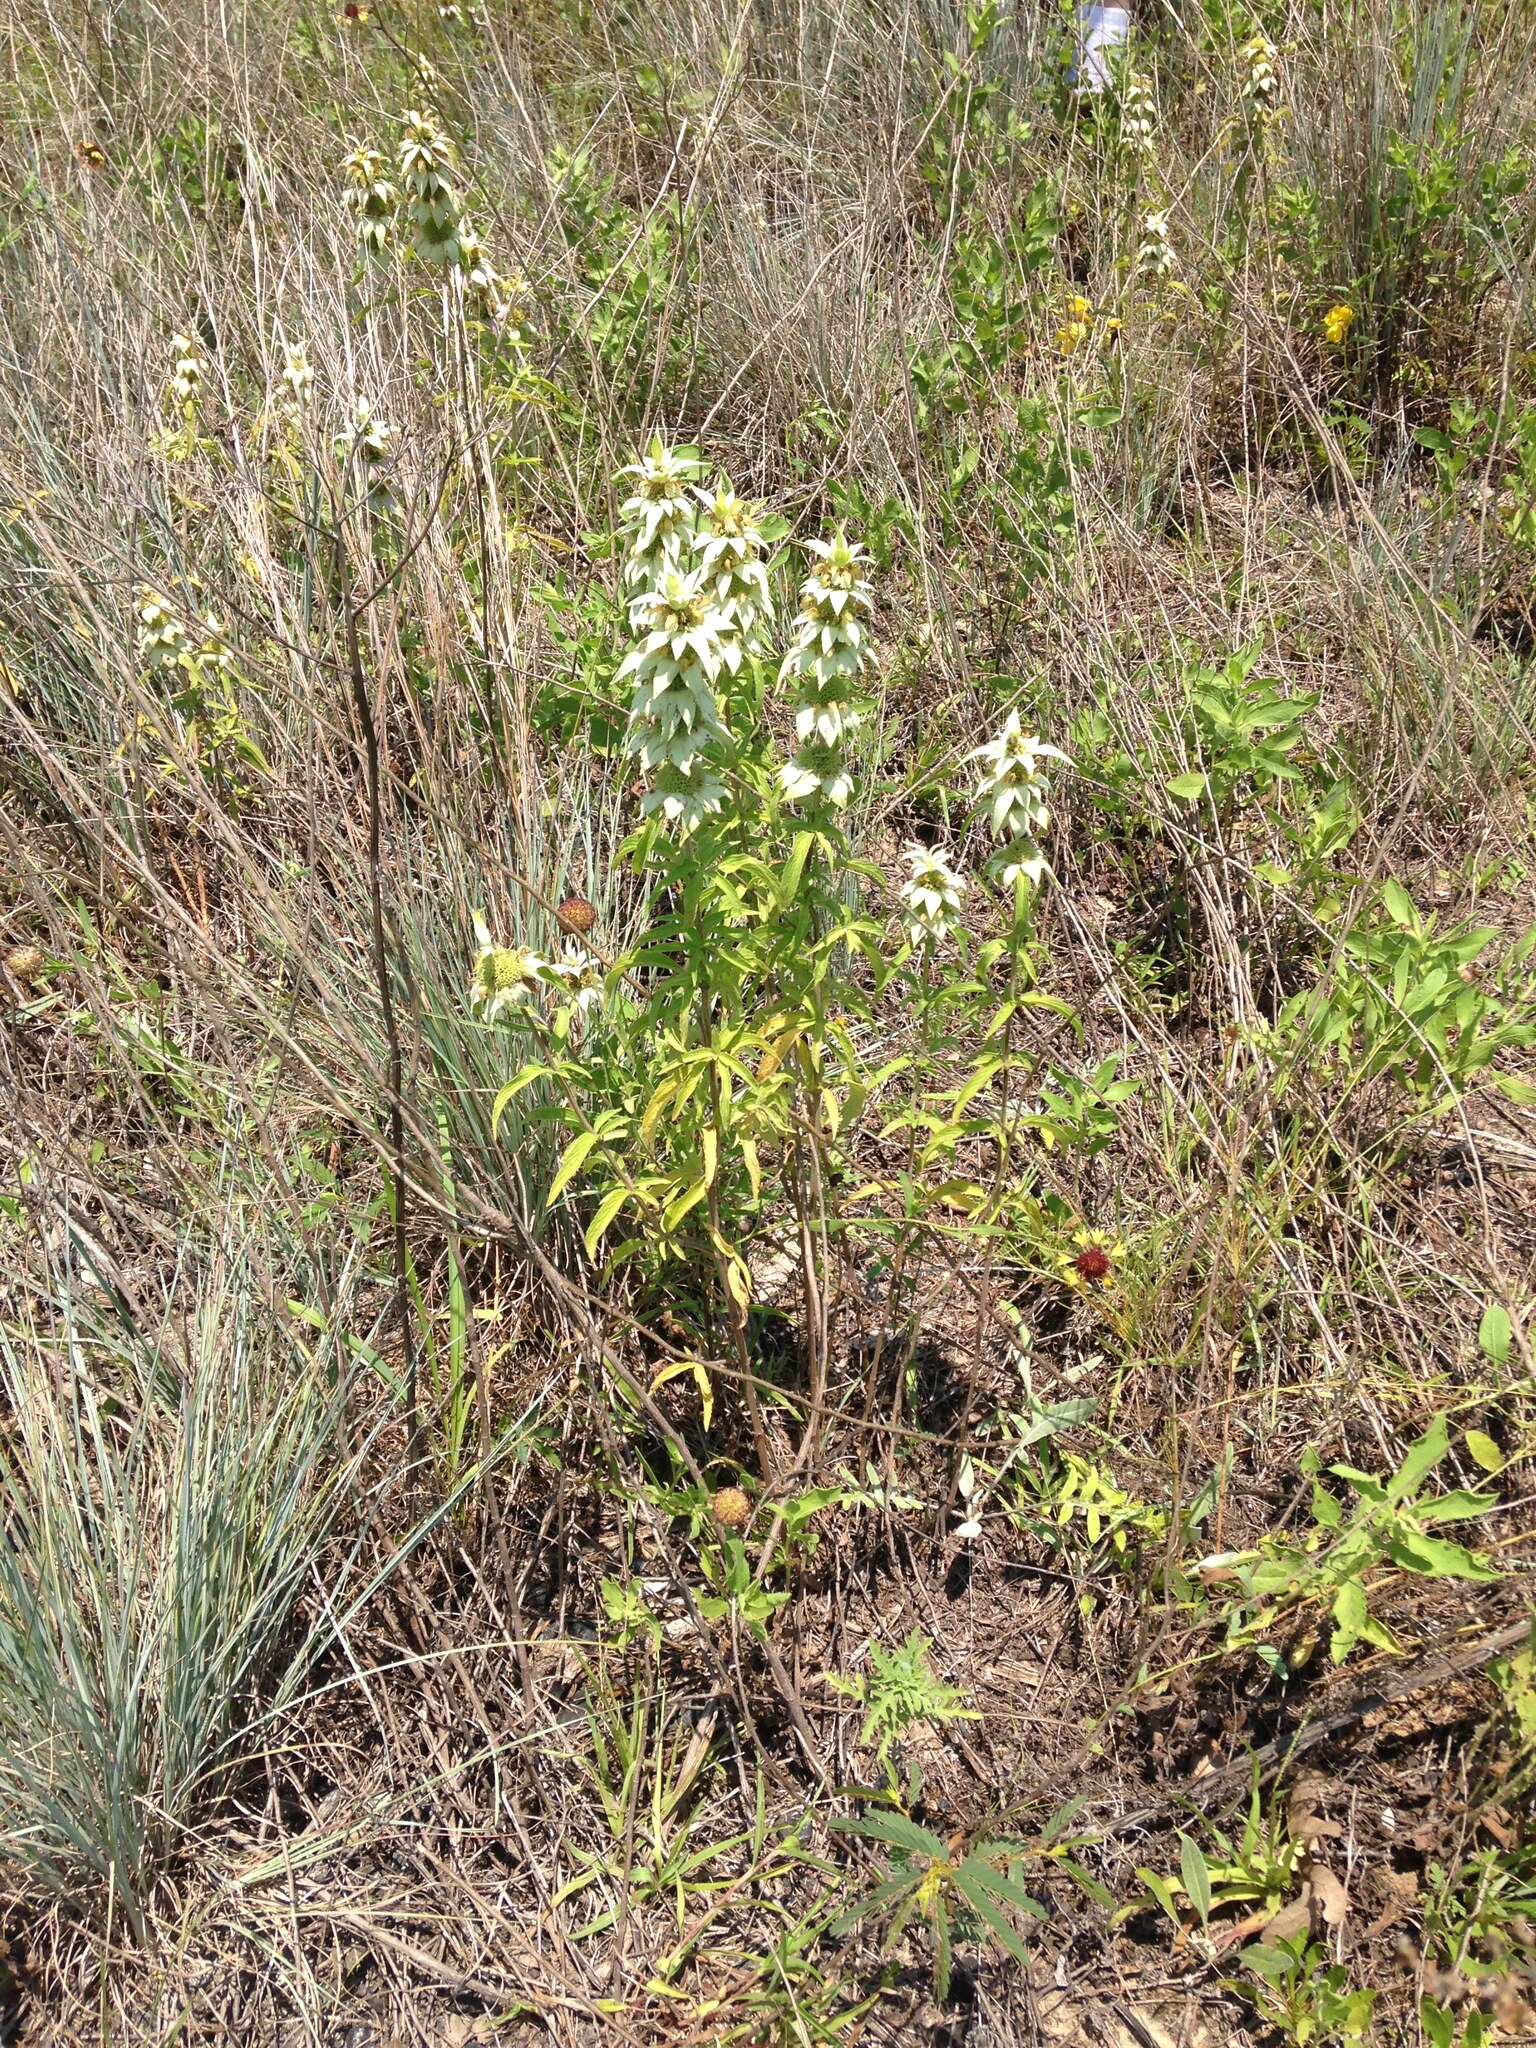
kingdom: Plantae
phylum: Tracheophyta
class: Magnoliopsida
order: Lamiales
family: Lamiaceae
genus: Monarda
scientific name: Monarda punctata
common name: Dotted monarda
